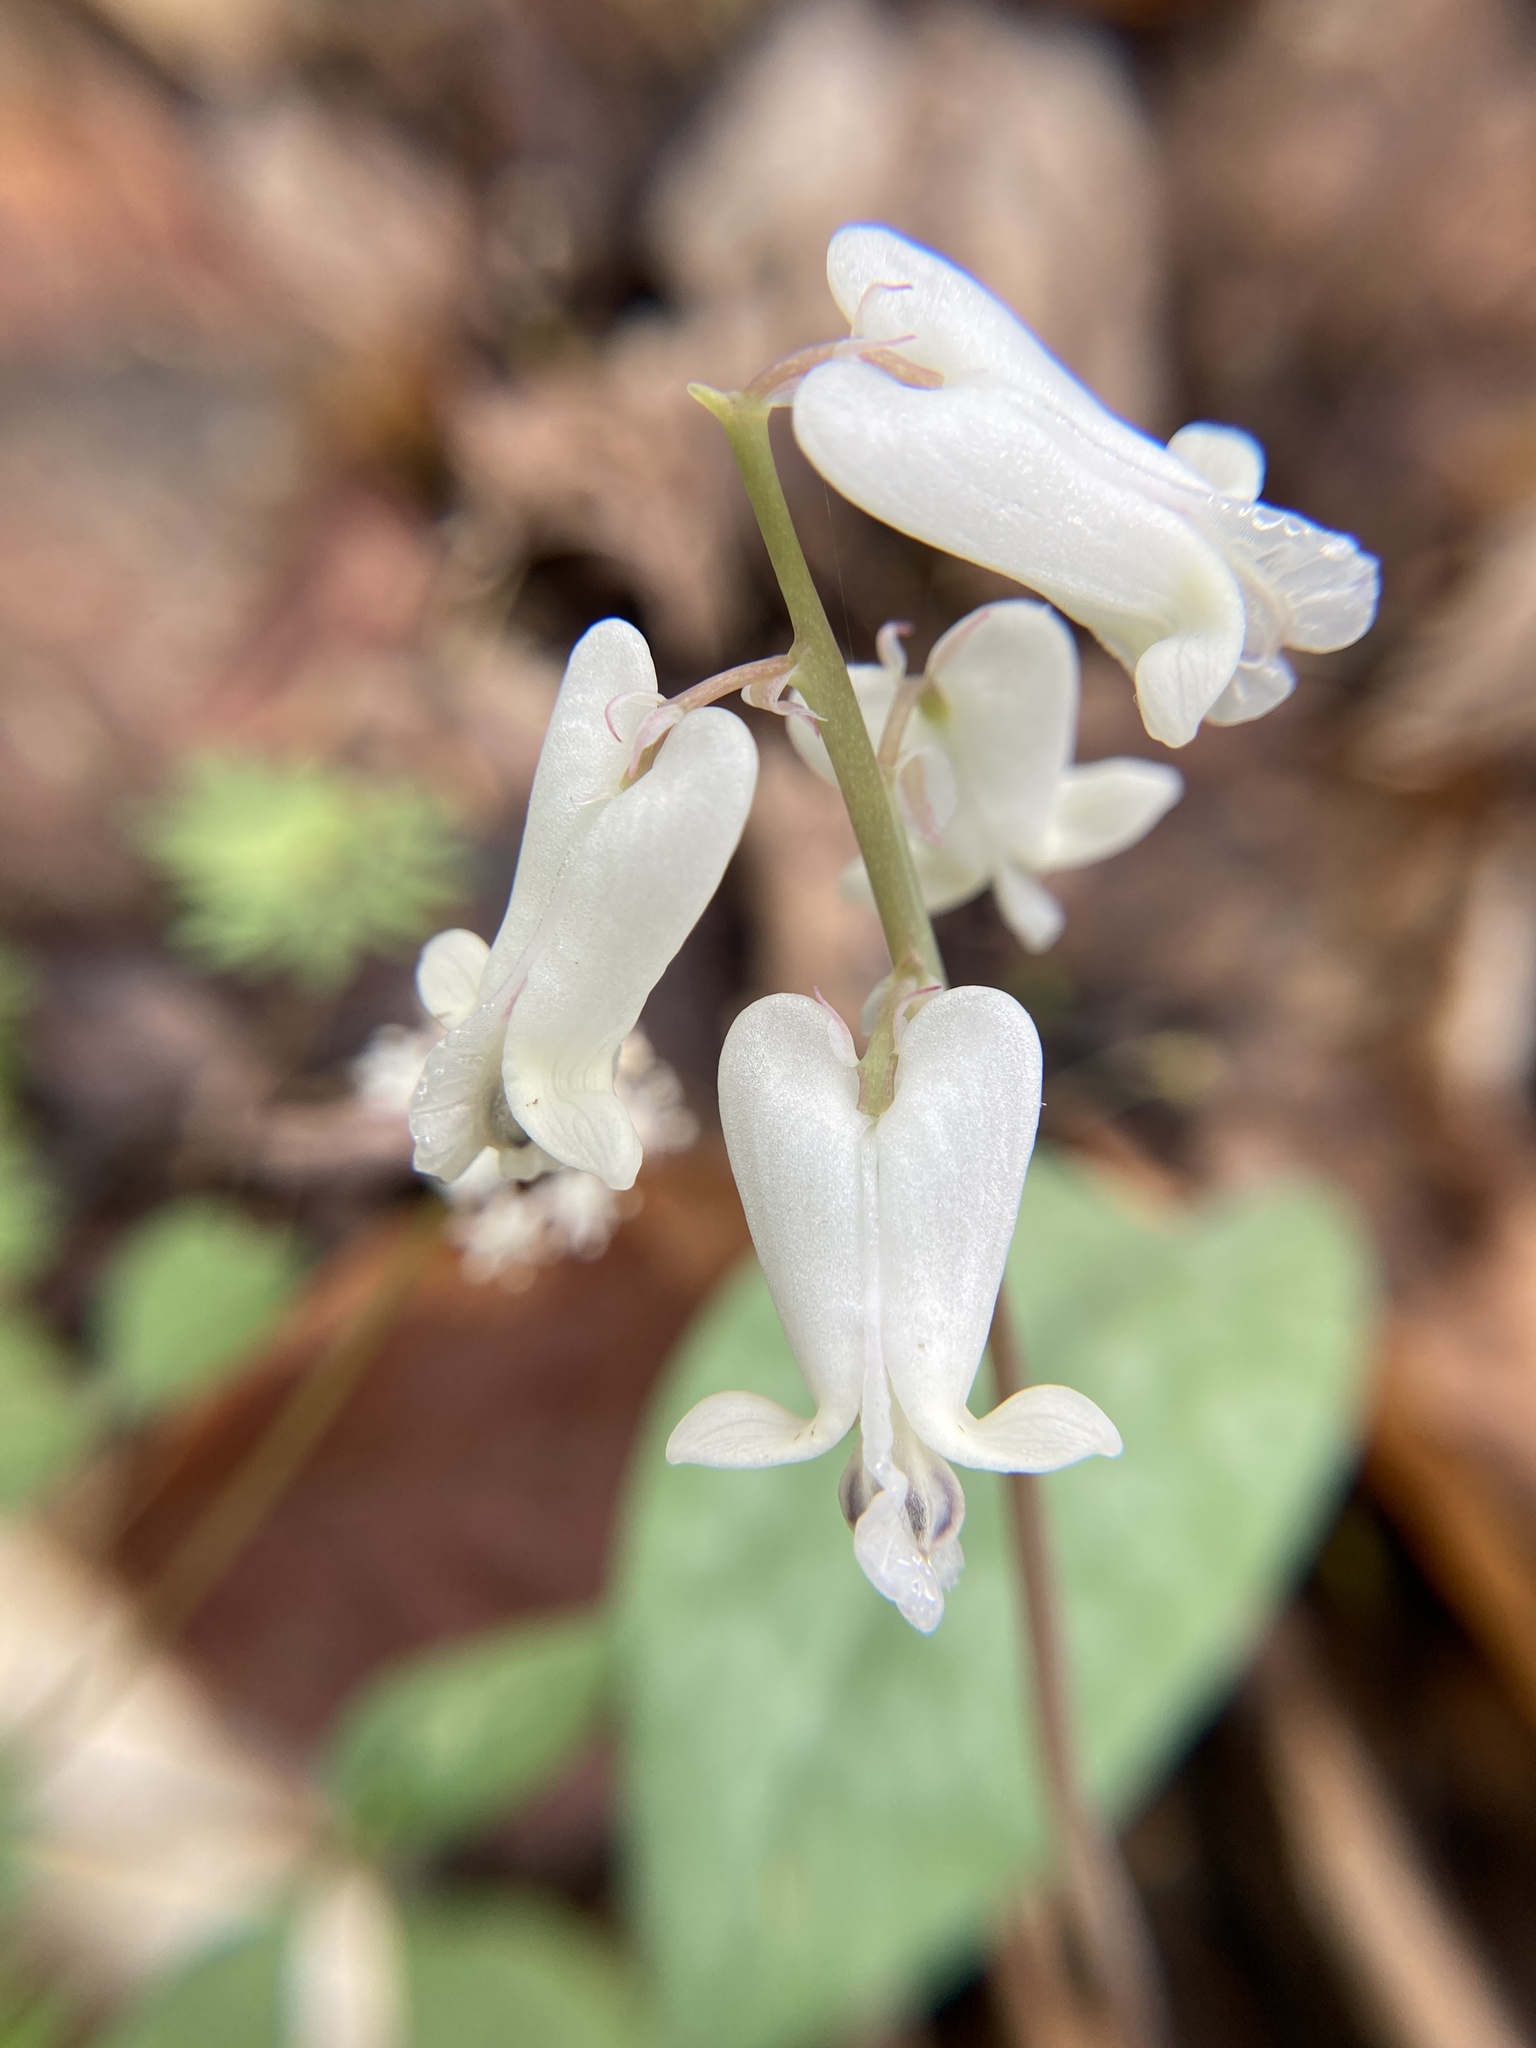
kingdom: Plantae
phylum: Tracheophyta
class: Magnoliopsida
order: Ranunculales
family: Papaveraceae
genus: Dicentra
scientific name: Dicentra canadensis
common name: Squirrel-corn
